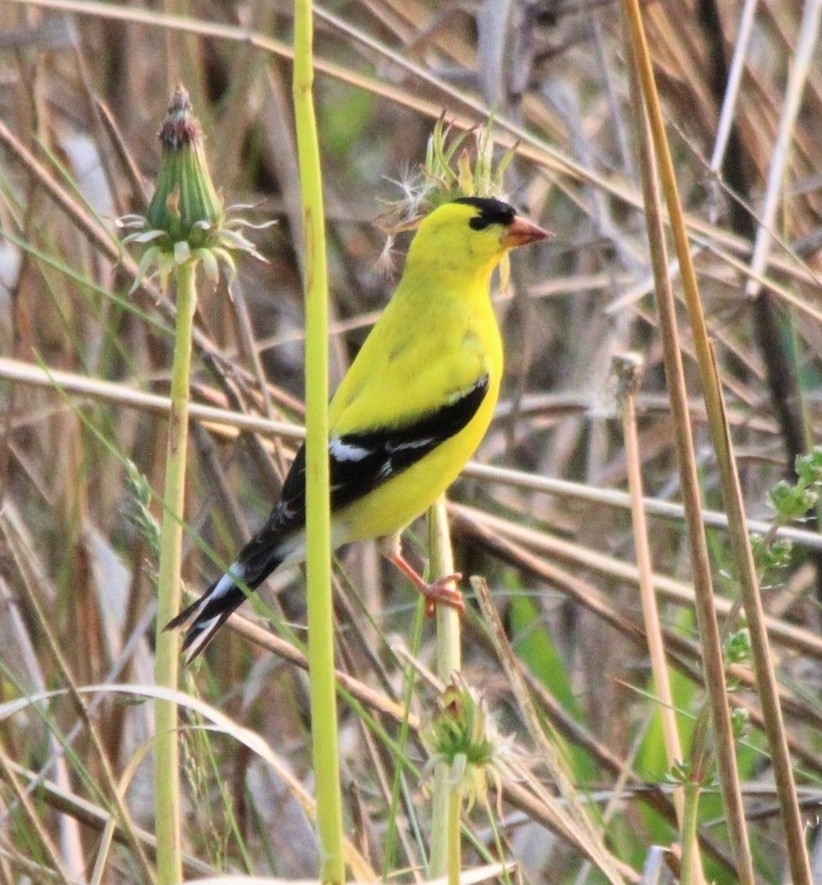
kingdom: Animalia
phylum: Chordata
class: Aves
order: Passeriformes
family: Fringillidae
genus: Spinus
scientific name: Spinus tristis
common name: American goldfinch
